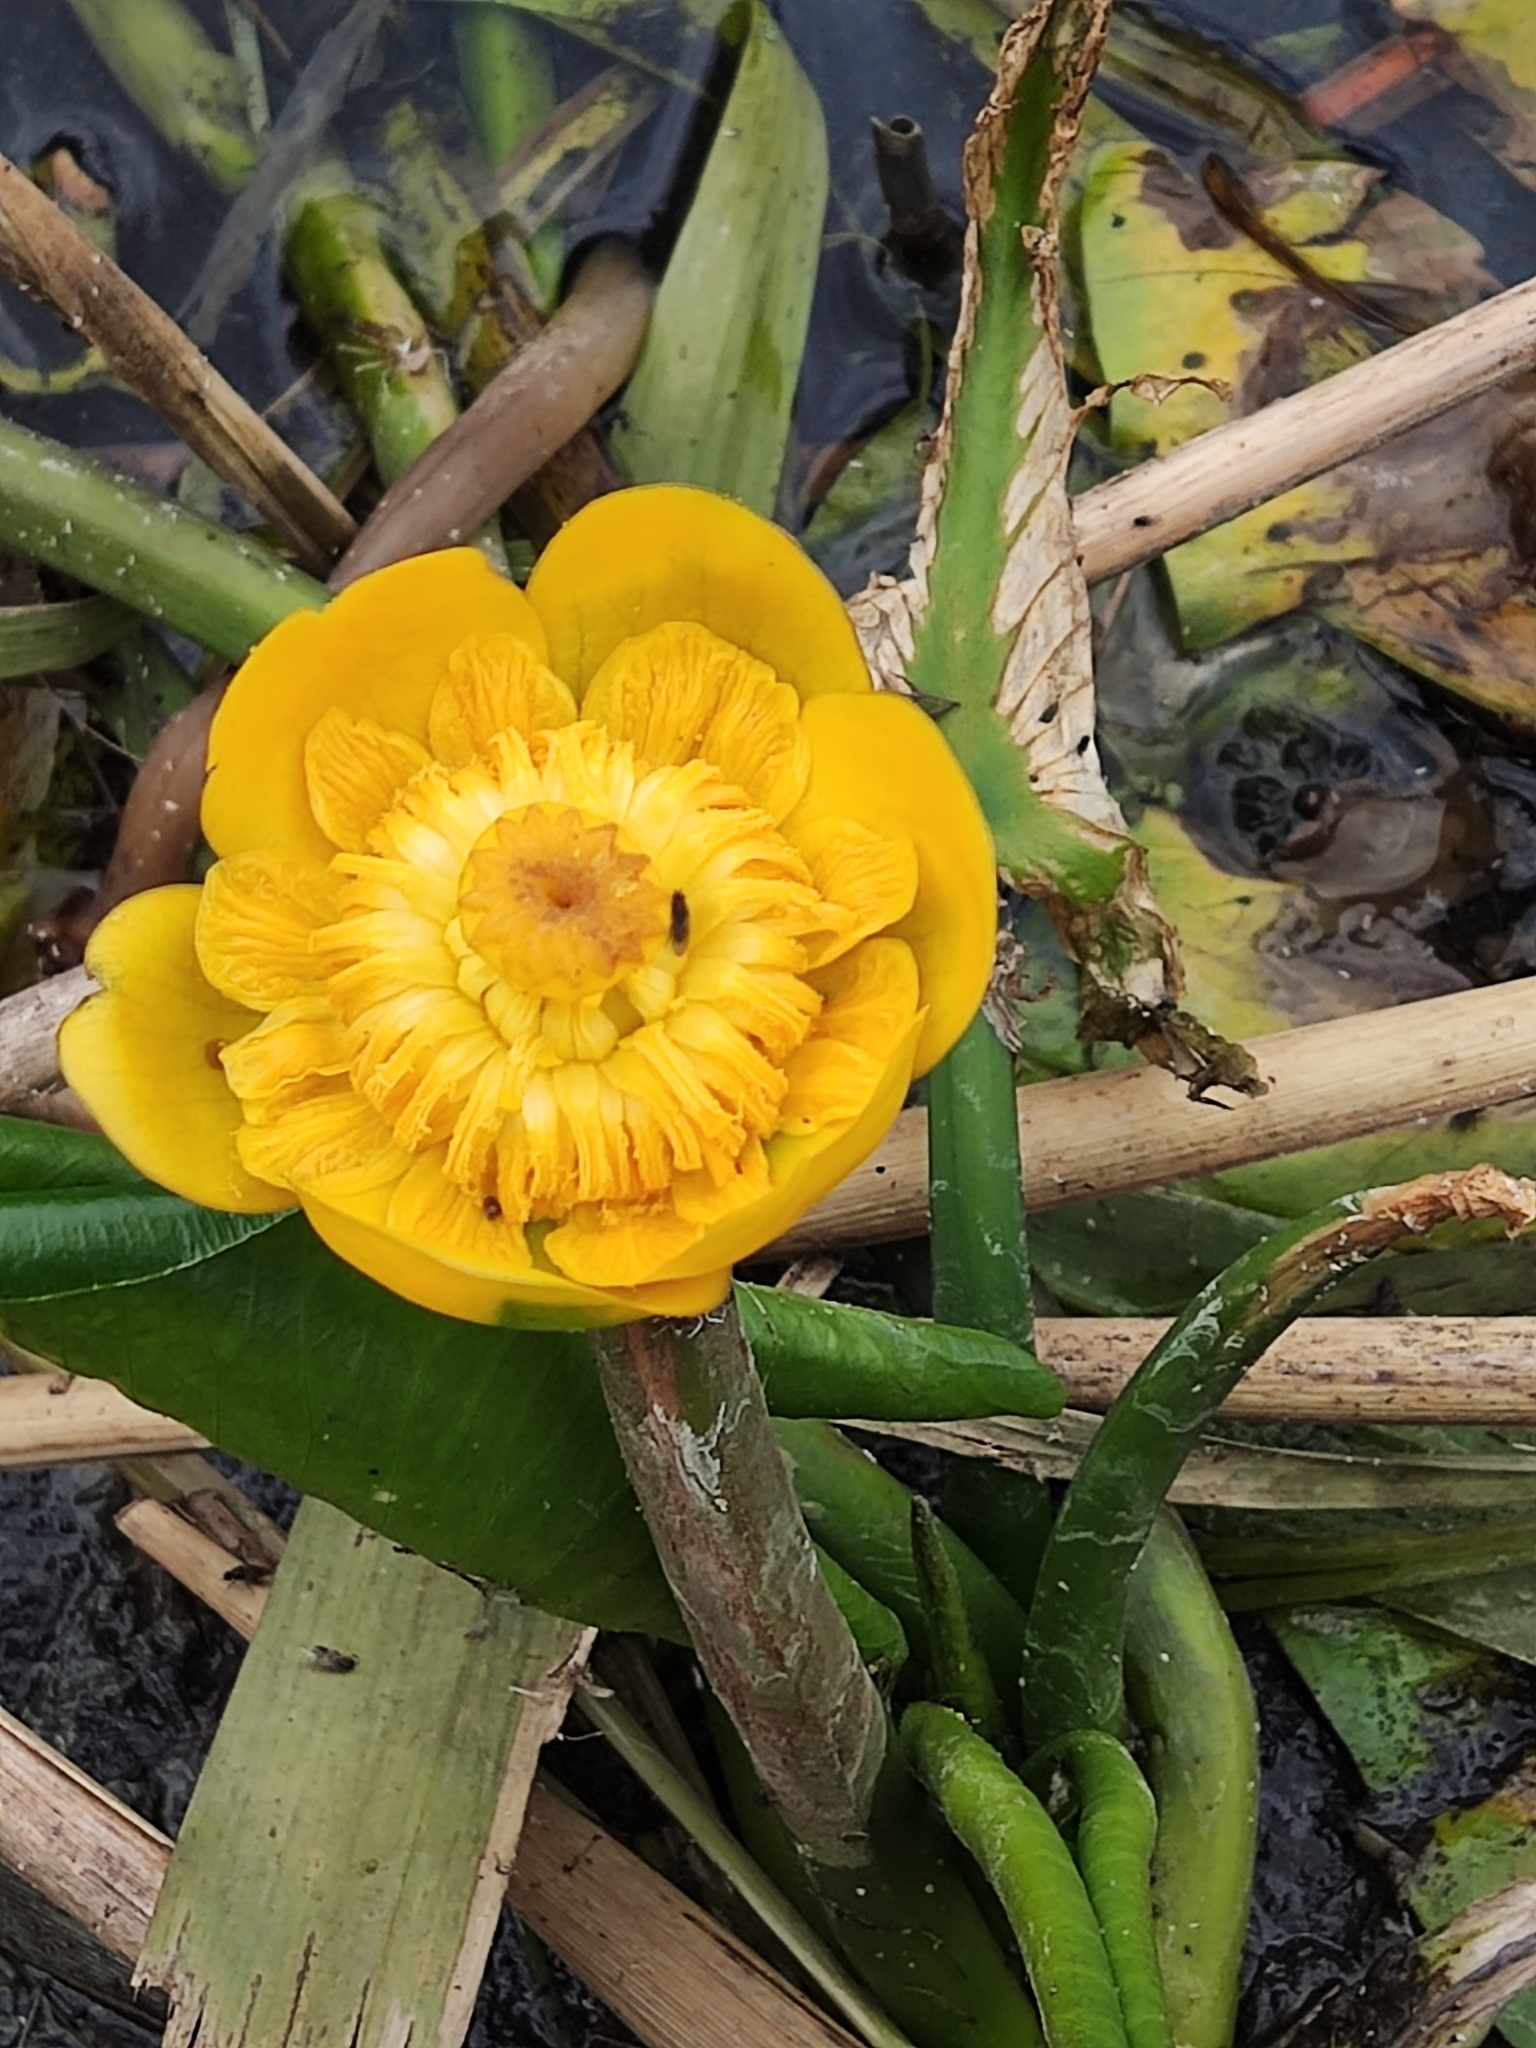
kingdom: Plantae
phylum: Tracheophyta
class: Magnoliopsida
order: Nymphaeales
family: Nymphaeaceae
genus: Nuphar
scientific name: Nuphar lutea
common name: Yellow water-lily
